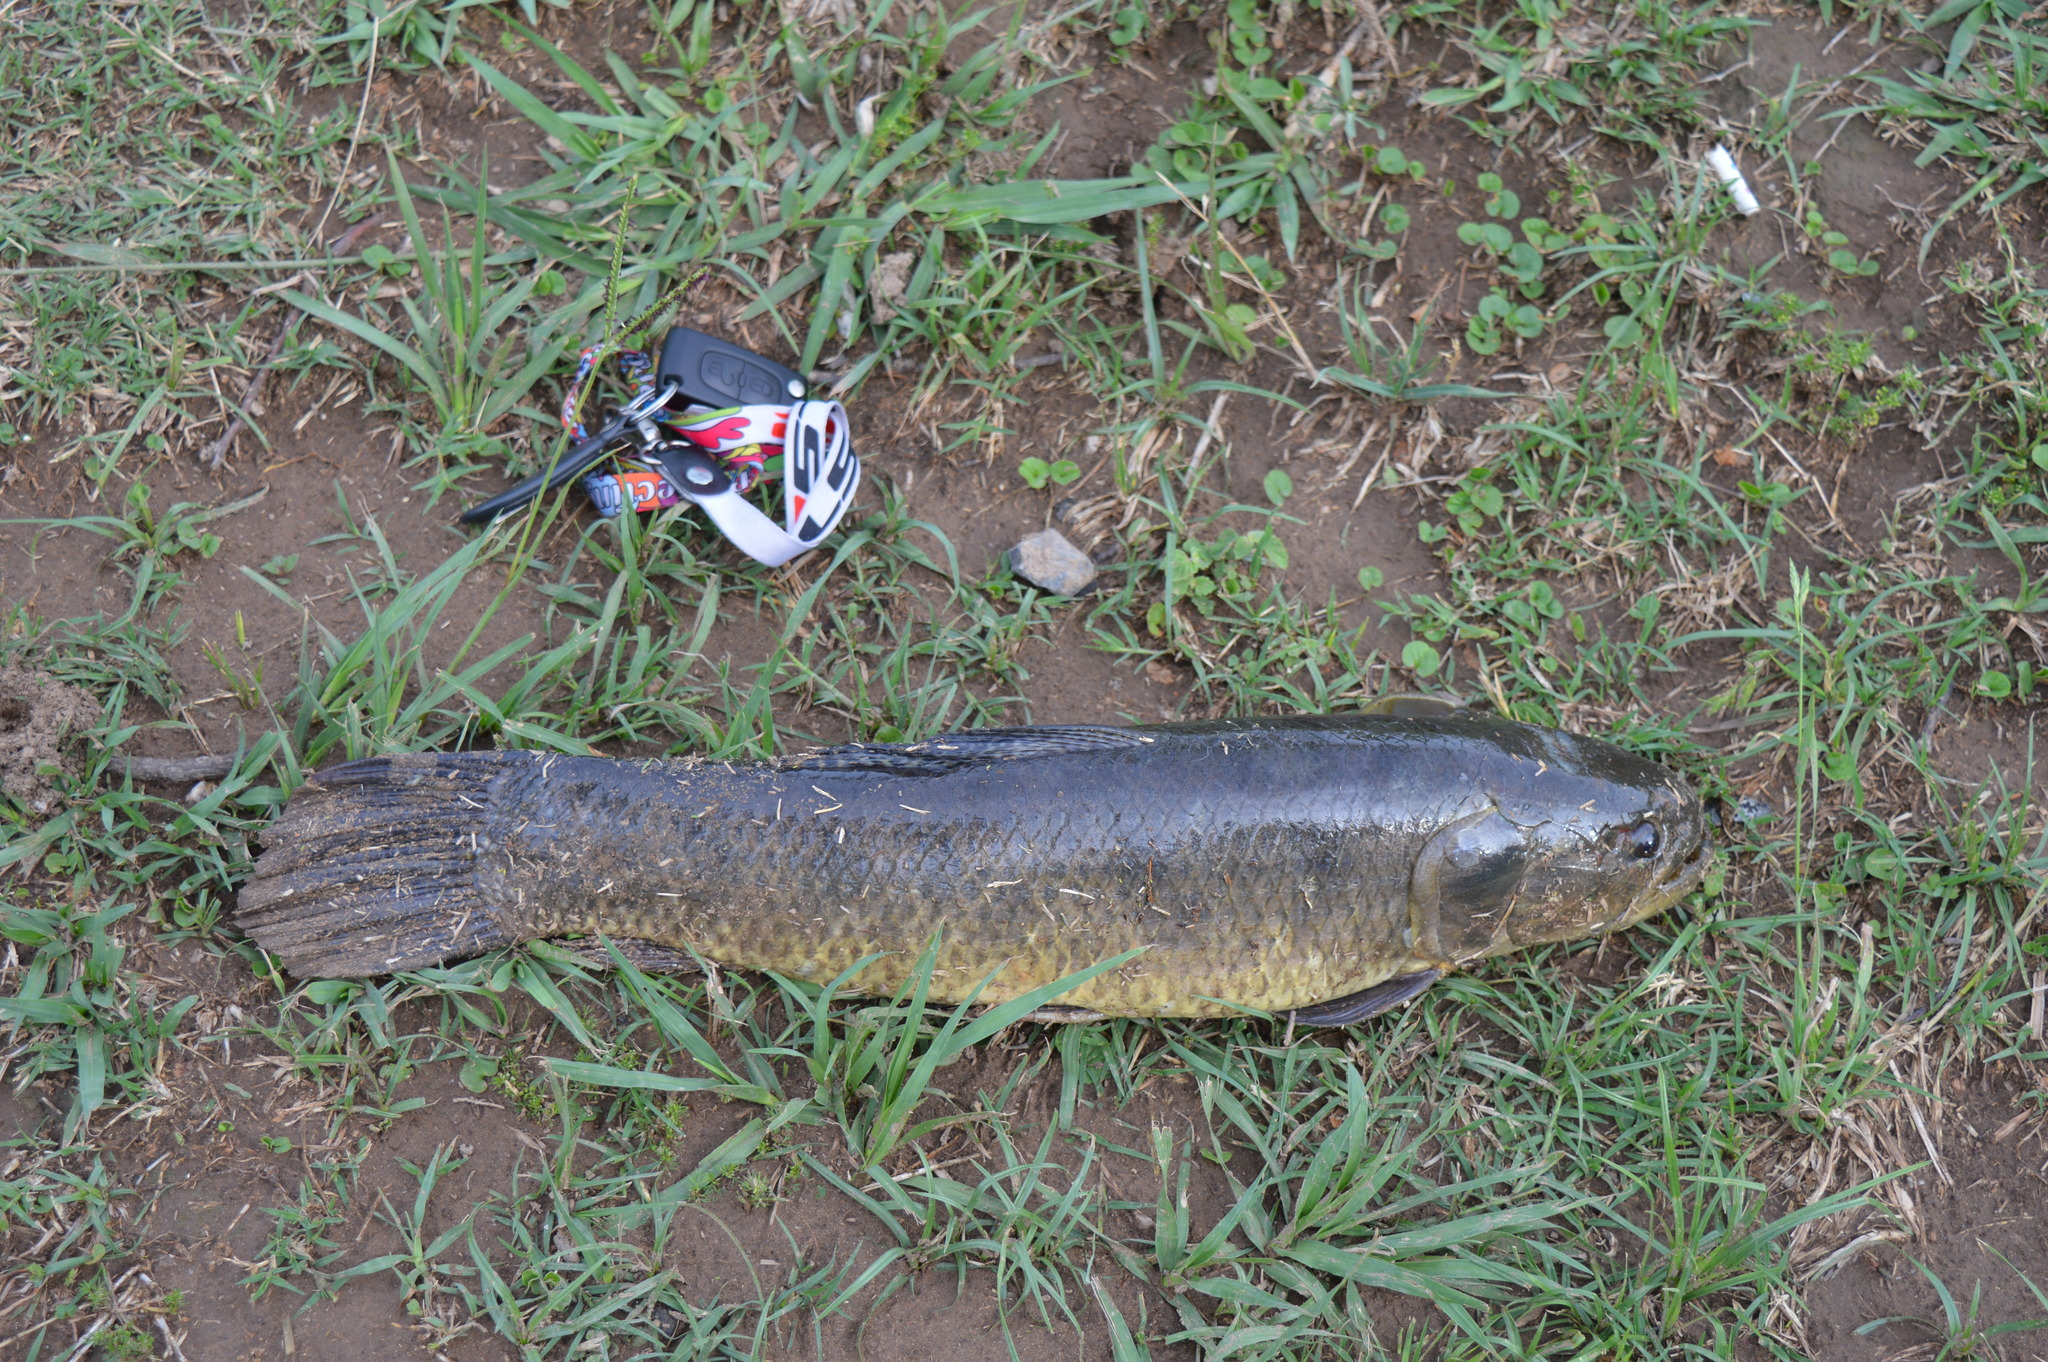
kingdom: Animalia
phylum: Chordata
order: Characiformes
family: Erythrinidae
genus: Hoplias
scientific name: Hoplias argentinensis
